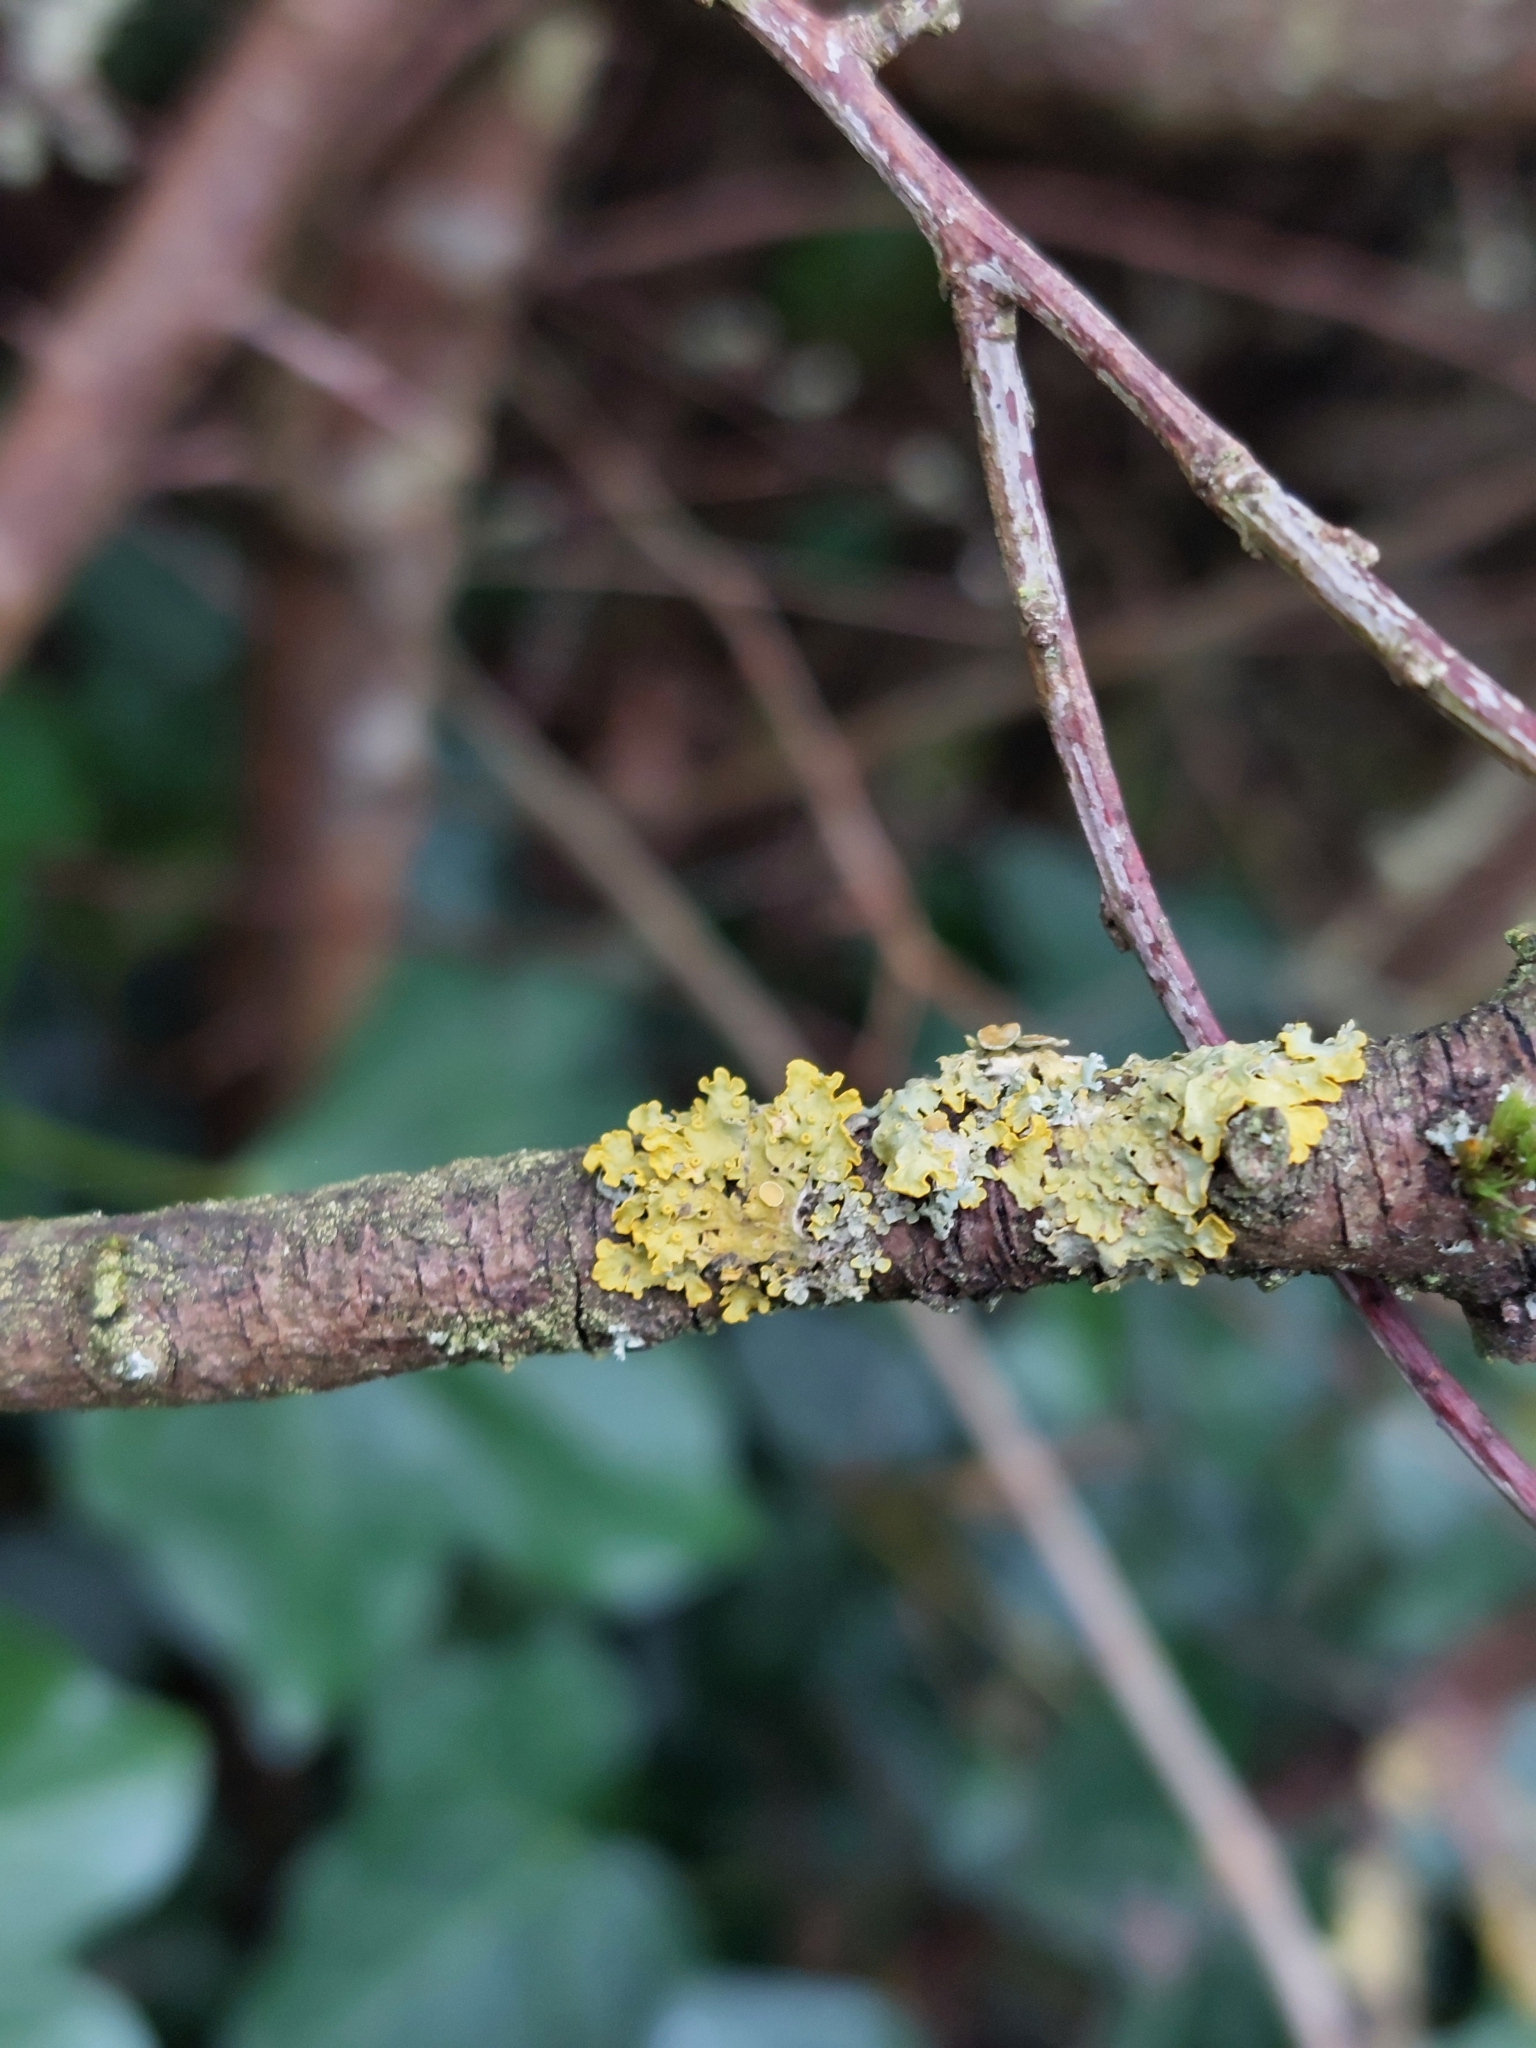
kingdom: Fungi
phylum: Ascomycota
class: Lecanoromycetes
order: Teloschistales
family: Teloschistaceae
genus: Xanthoria
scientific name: Xanthoria parietina
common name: Common orange lichen
